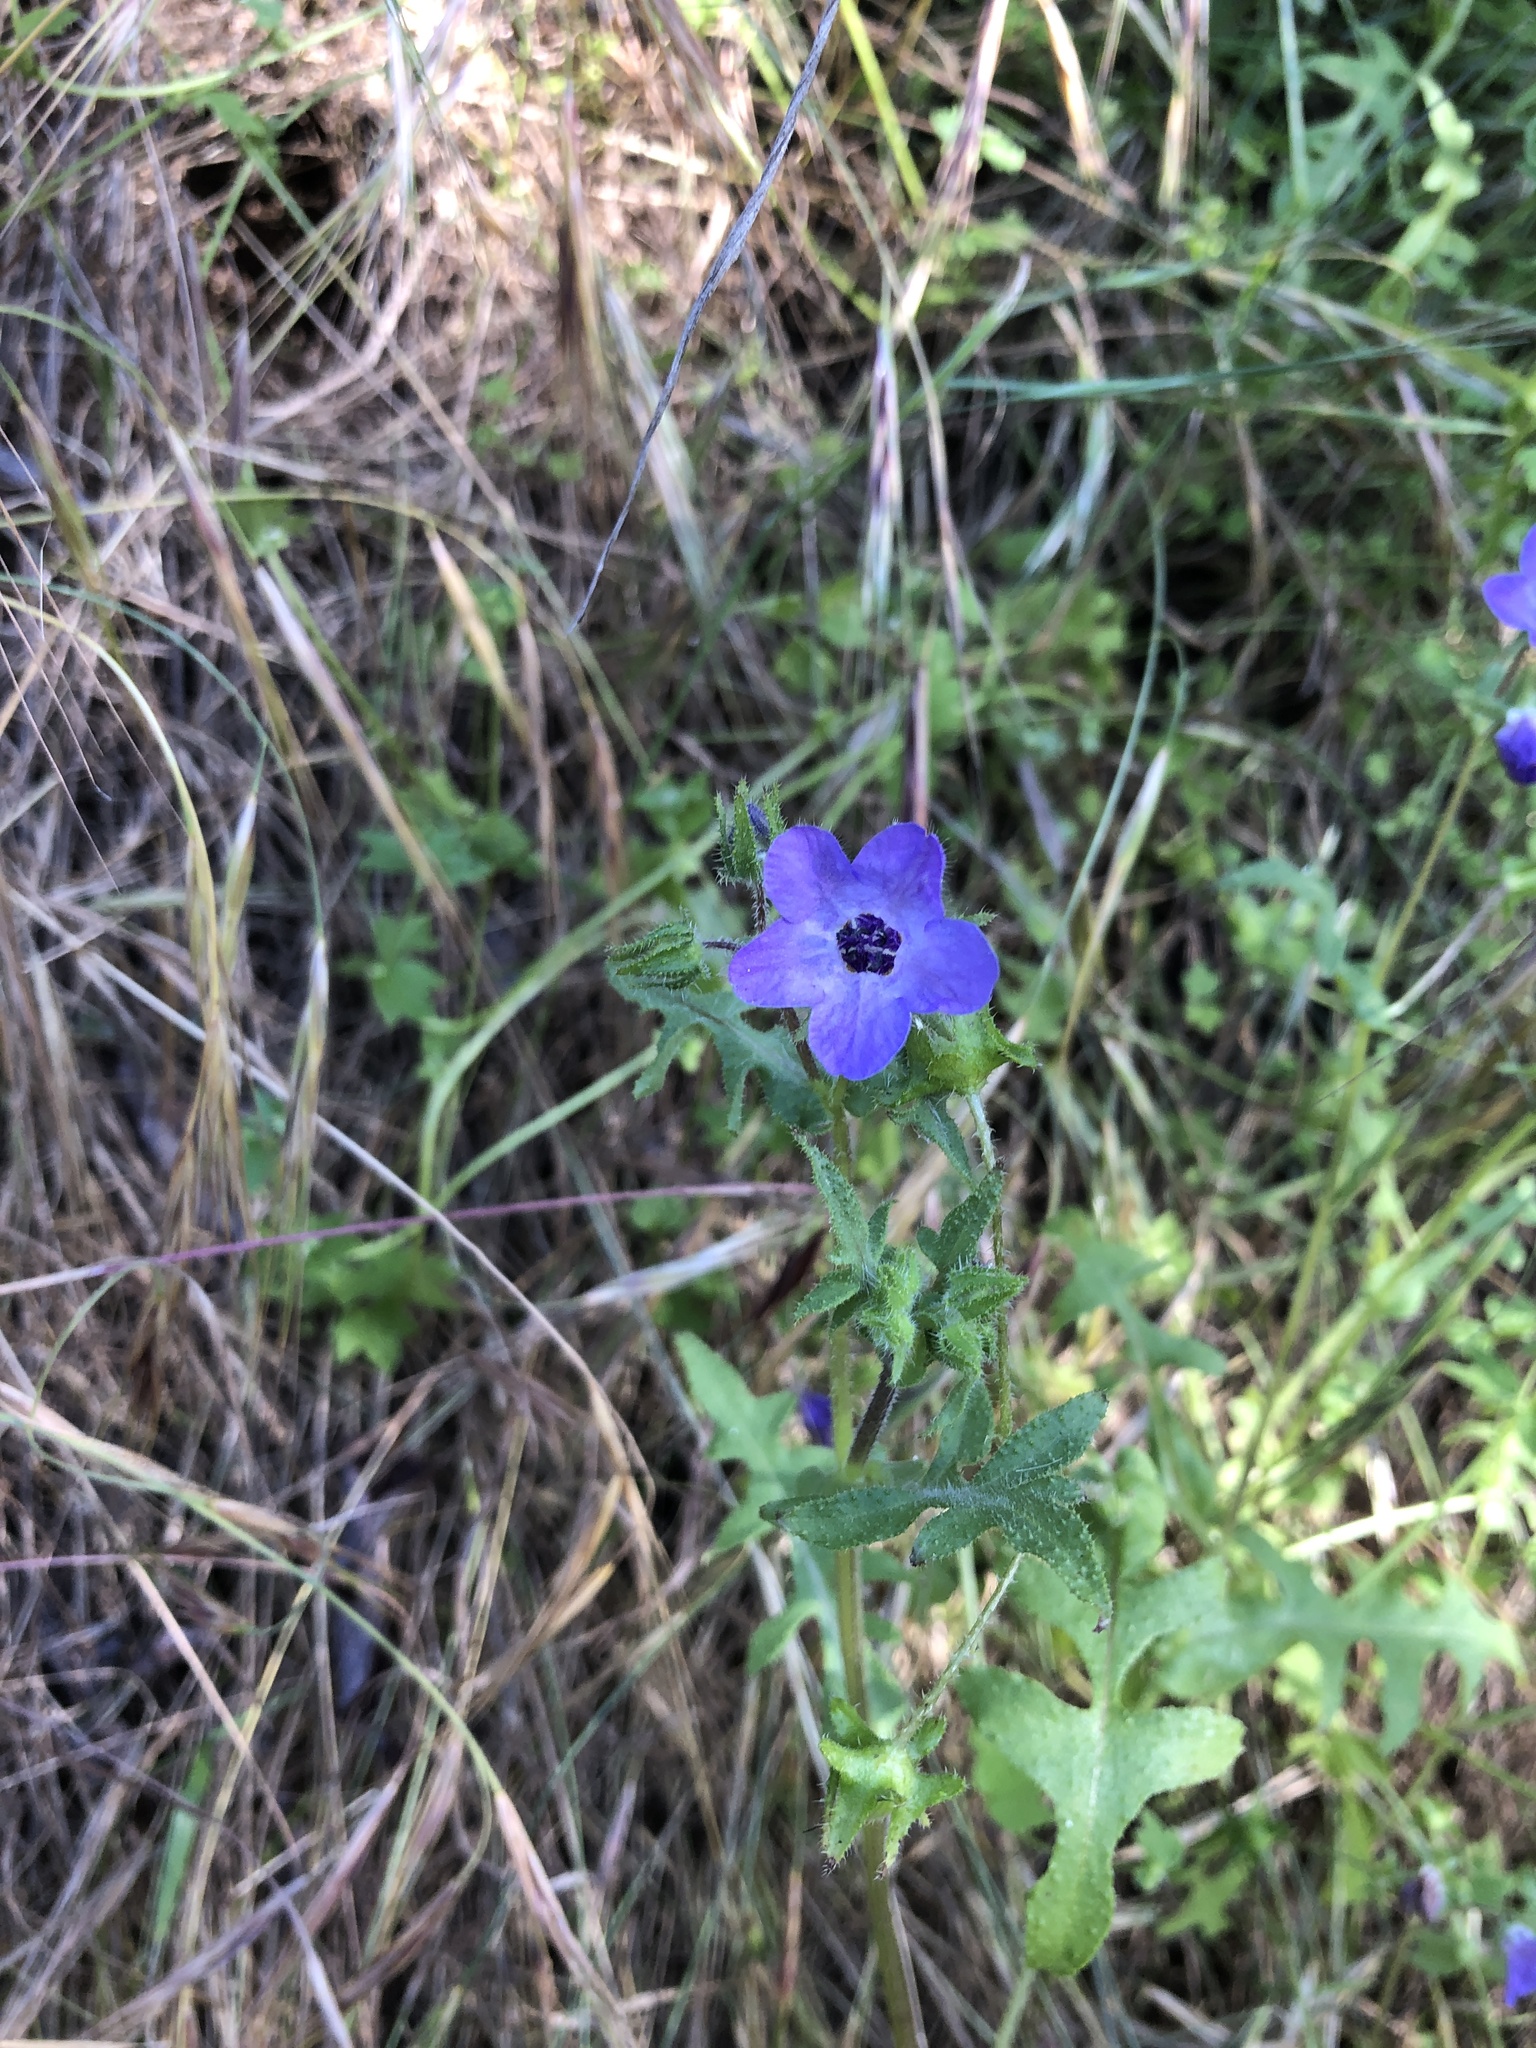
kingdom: Plantae
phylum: Tracheophyta
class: Magnoliopsida
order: Boraginales
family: Hydrophyllaceae
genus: Pholistoma
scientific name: Pholistoma auritum
